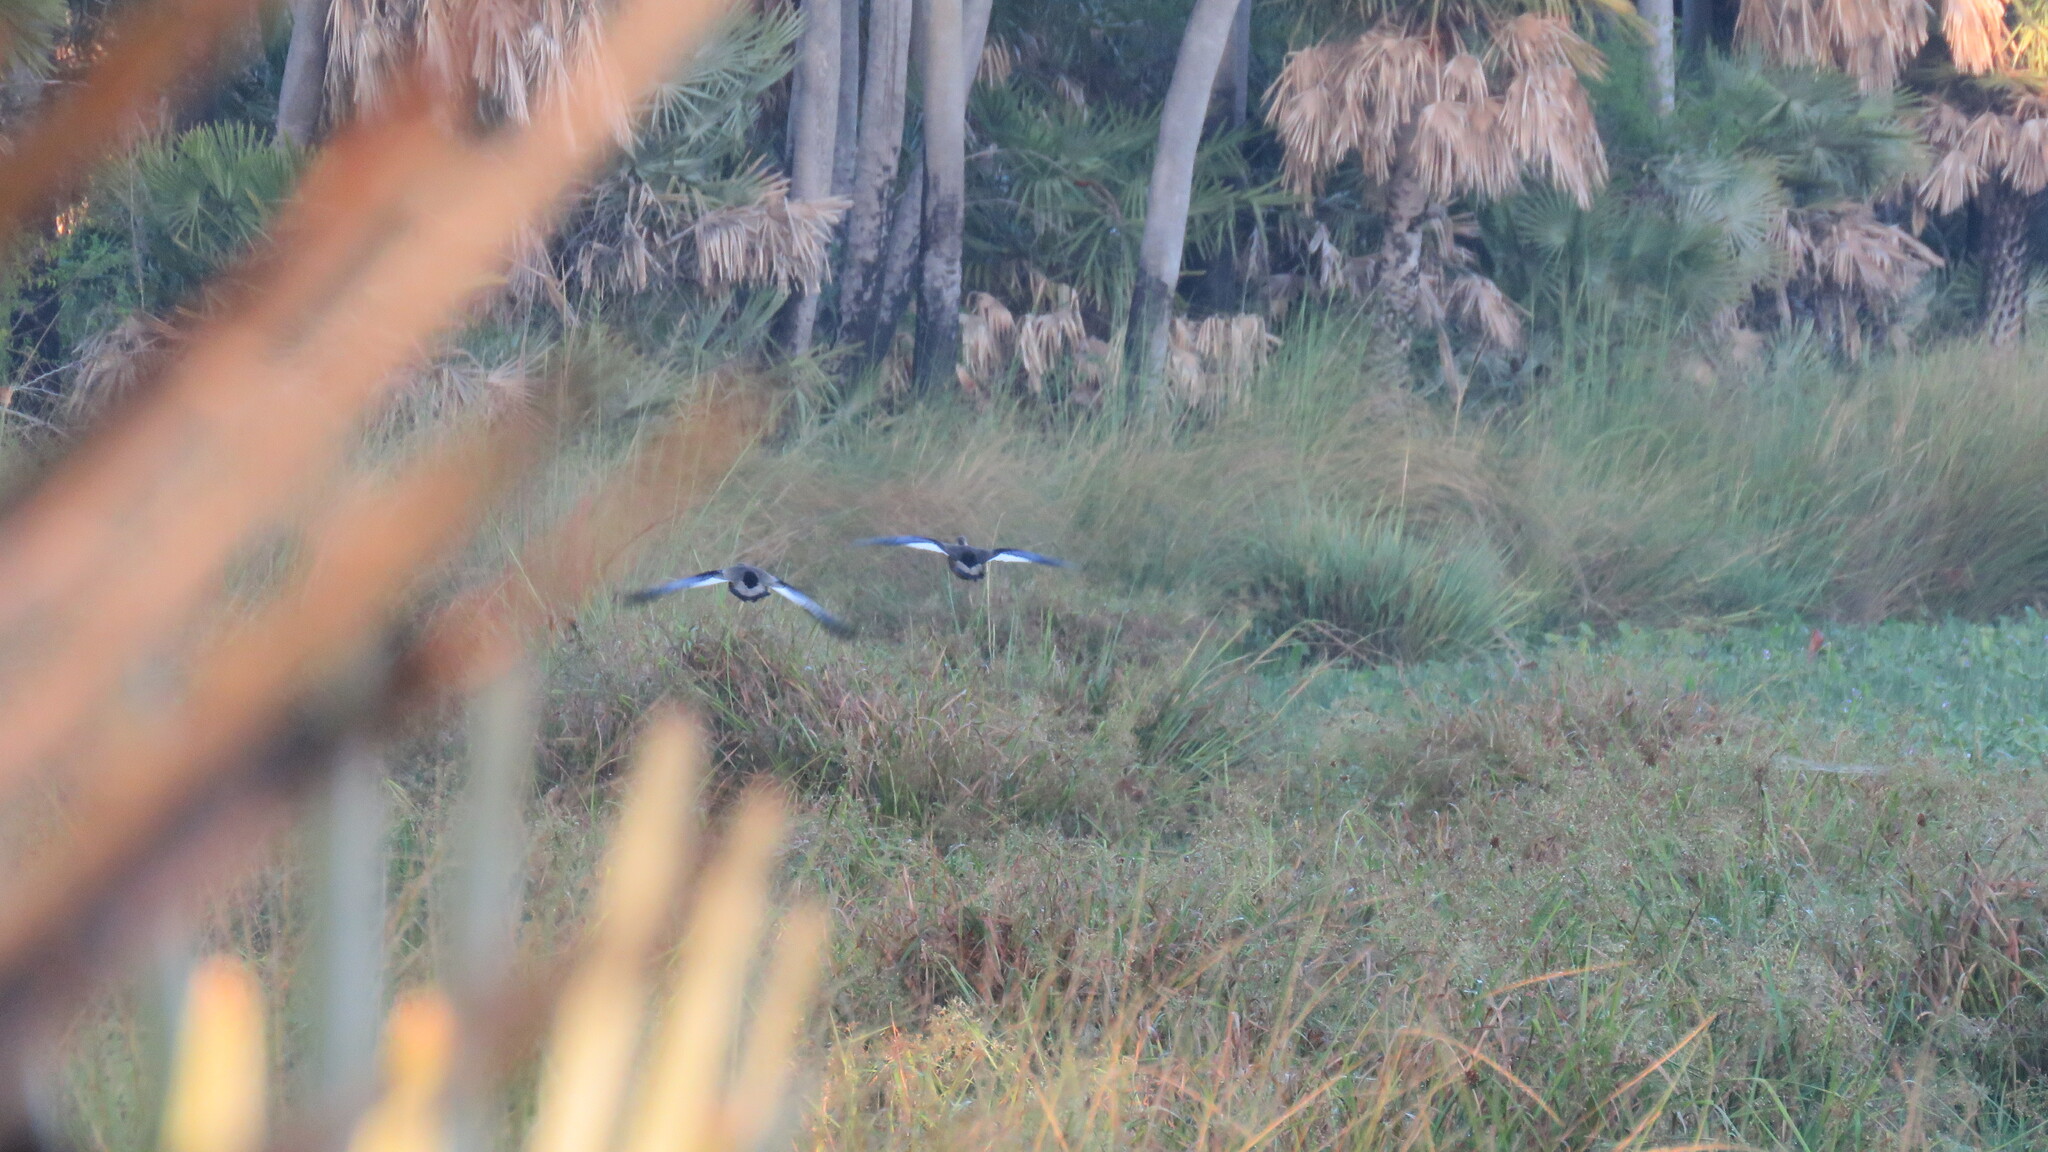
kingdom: Animalia
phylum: Chordata
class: Aves
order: Anseriformes
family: Anatidae
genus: Amazonetta
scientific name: Amazonetta brasiliensis
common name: Brazilian teal
